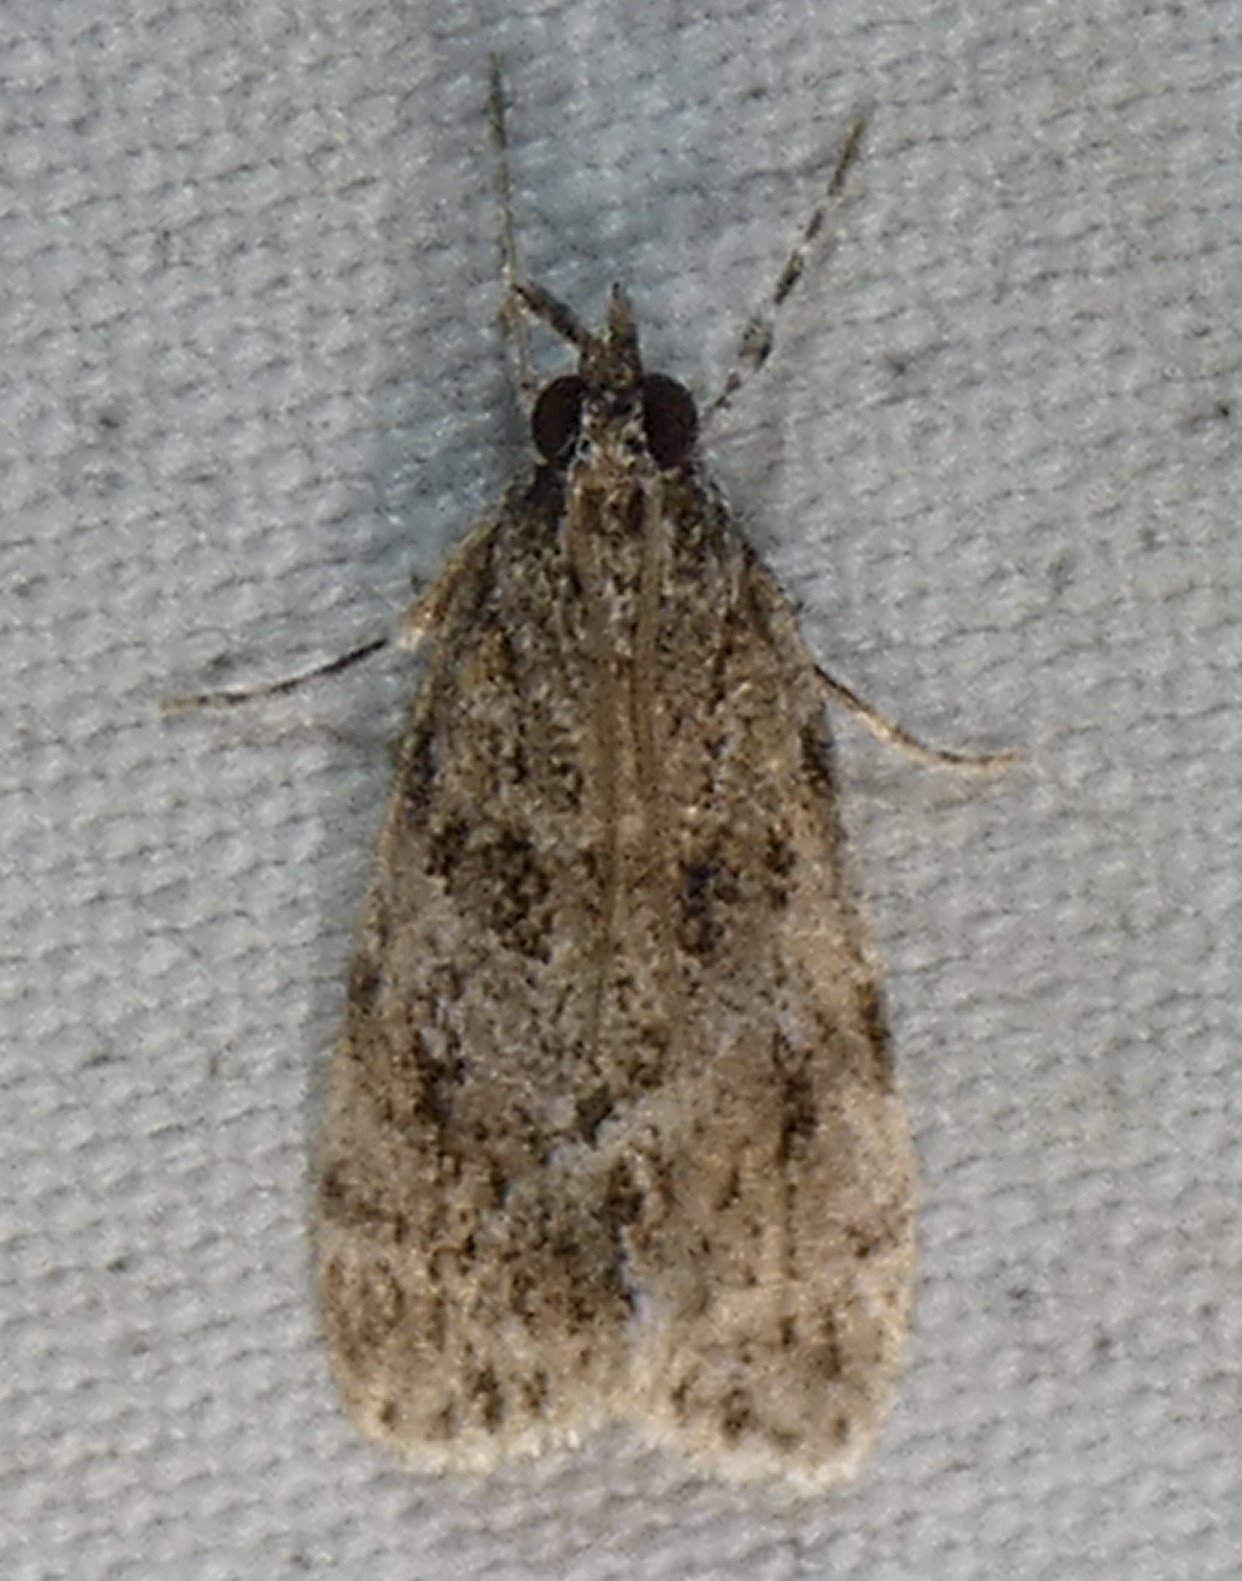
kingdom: Animalia
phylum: Arthropoda
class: Insecta
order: Lepidoptera
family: Crambidae
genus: Eudonia
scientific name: Eudonia heterosalis
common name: Mcdunnough's eudonia
